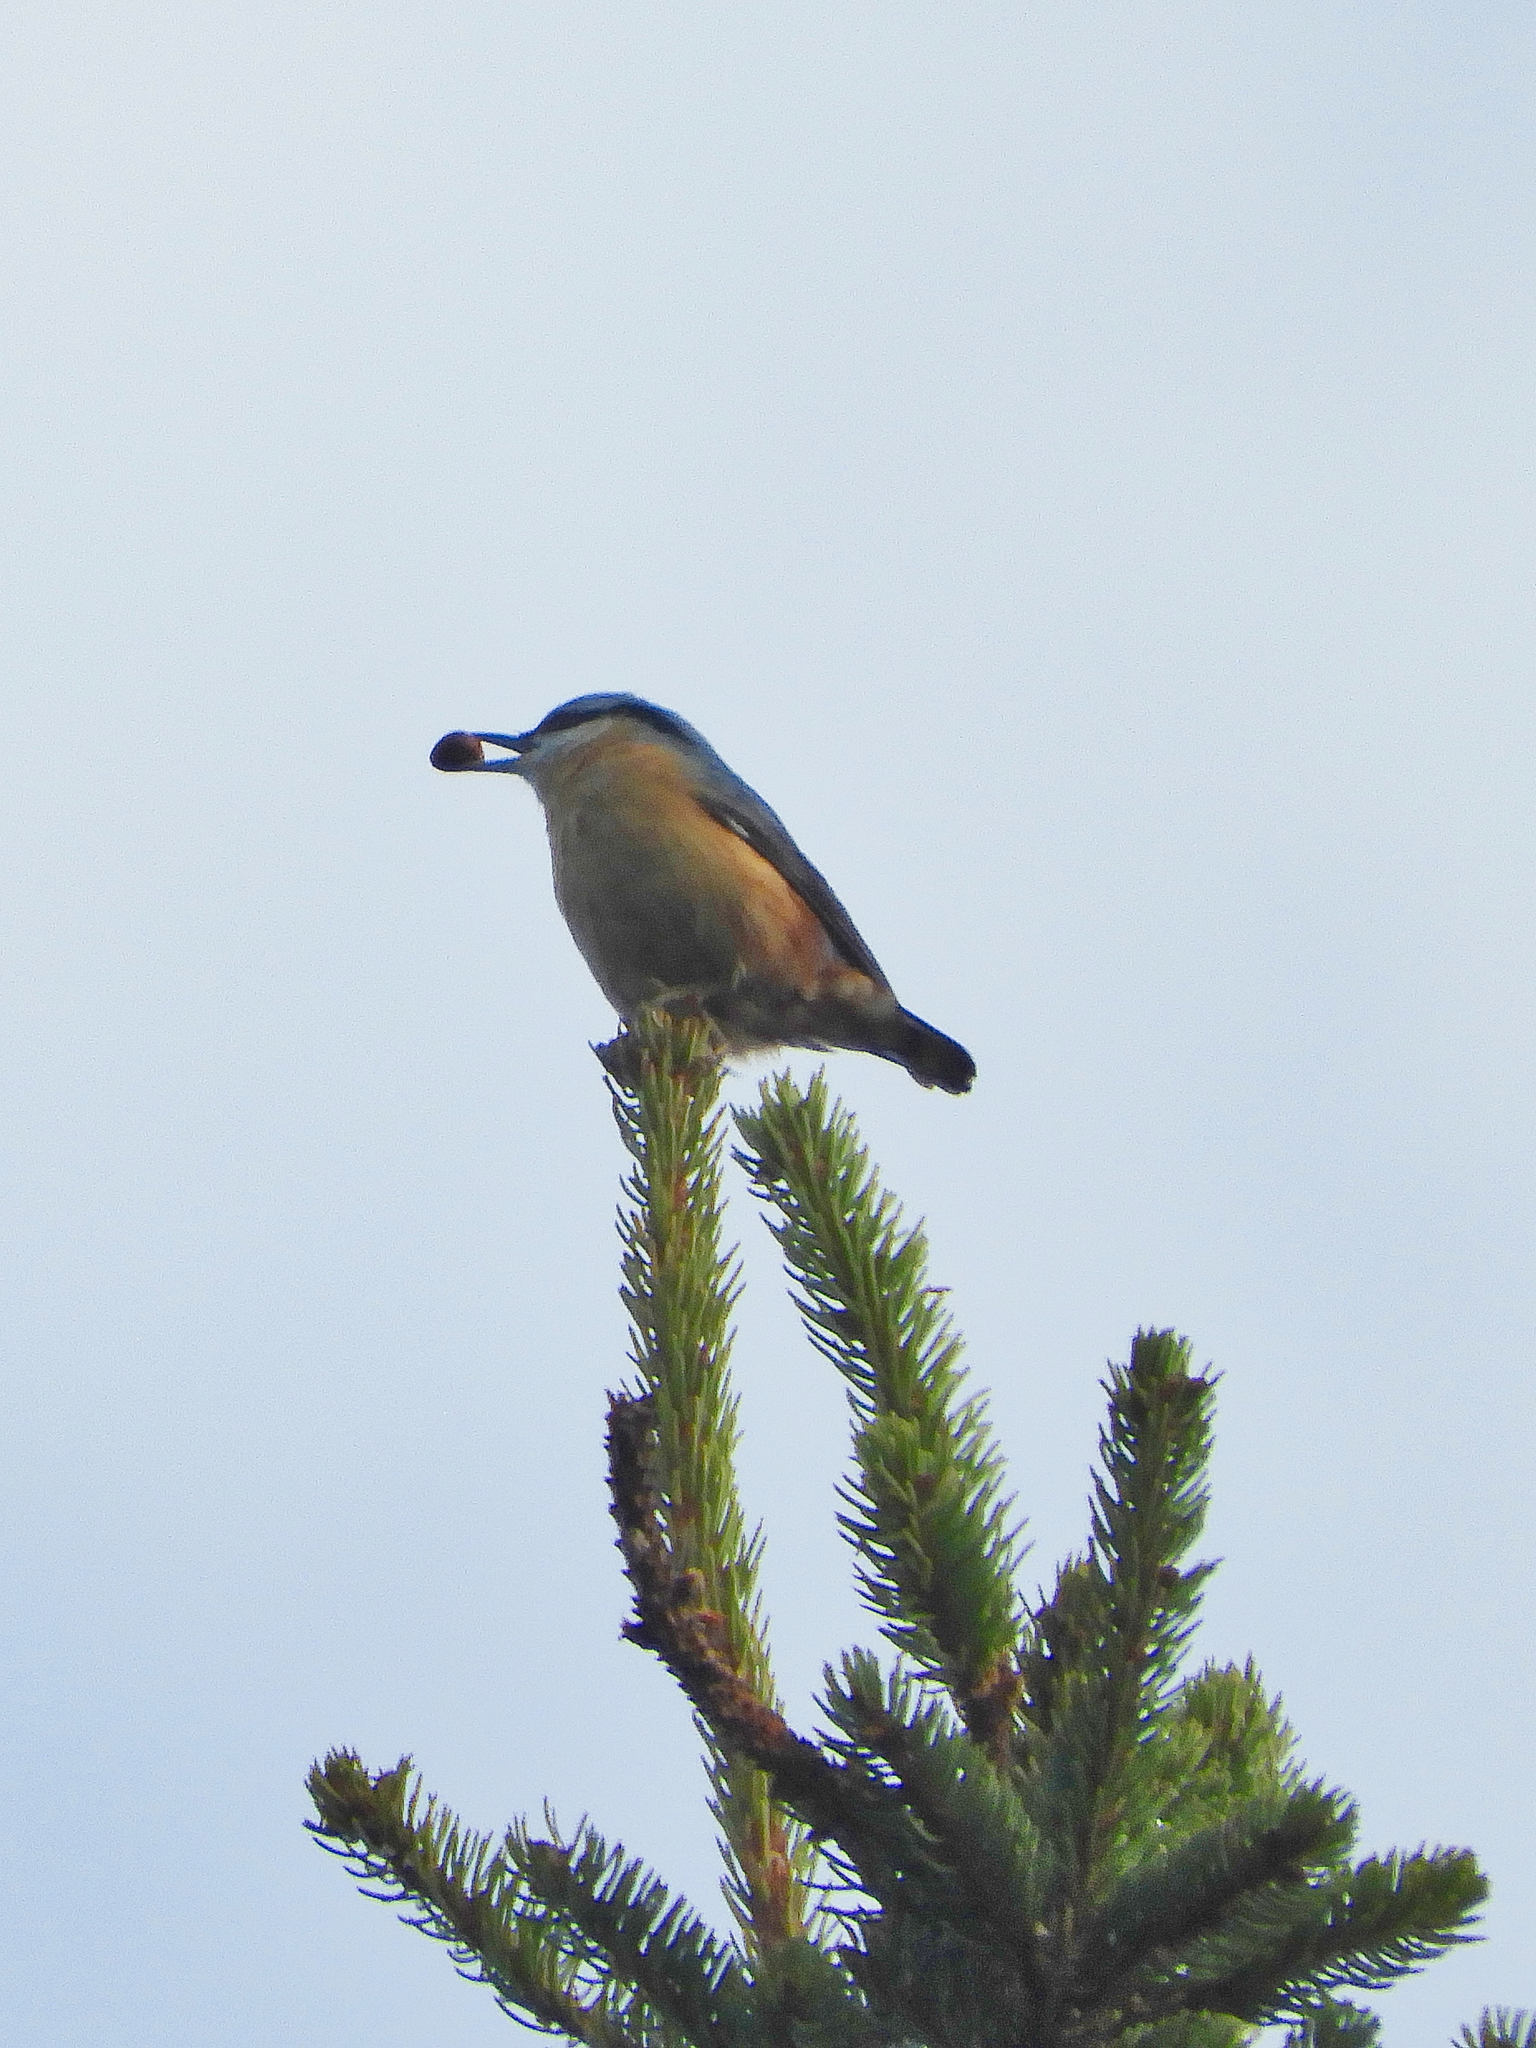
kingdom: Animalia
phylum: Chordata
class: Aves
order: Passeriformes
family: Sittidae
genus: Sitta
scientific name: Sitta europaea
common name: Eurasian nuthatch
